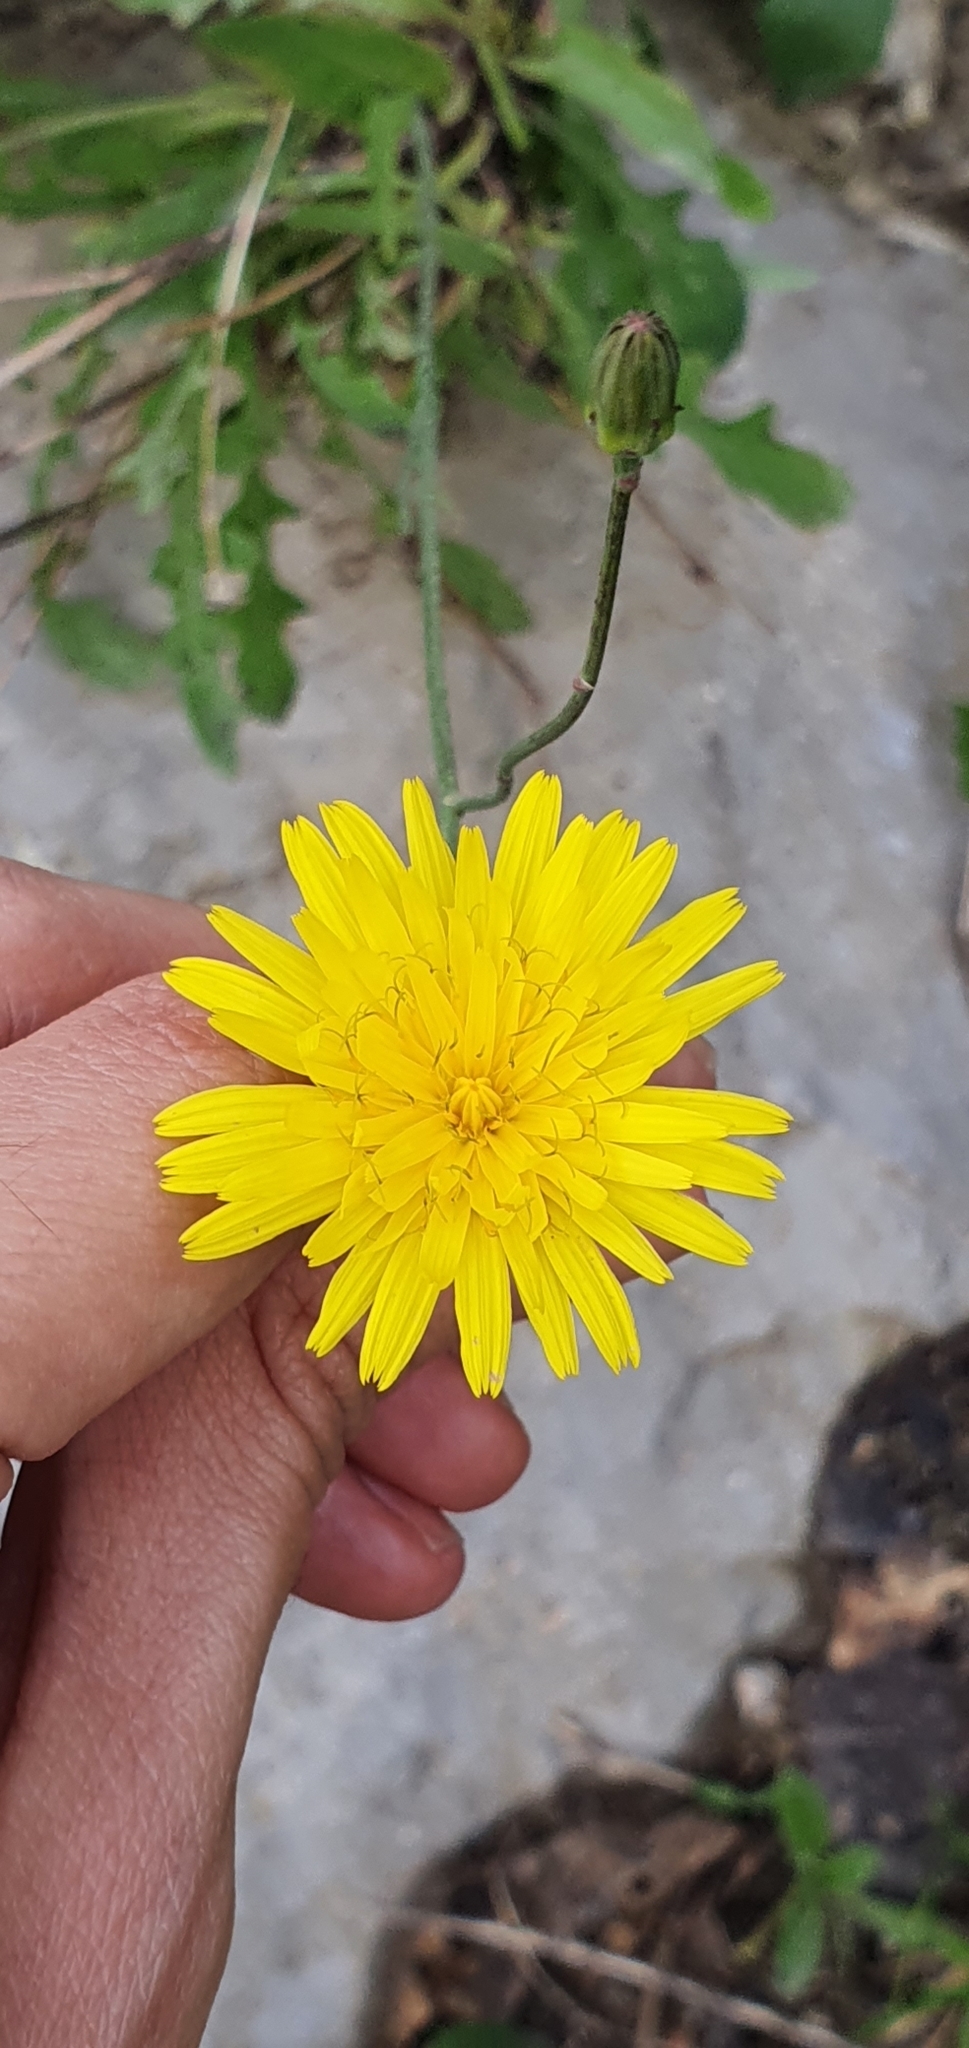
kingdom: Plantae
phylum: Tracheophyta
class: Magnoliopsida
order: Asterales
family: Asteraceae
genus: Reichardia
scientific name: Reichardia picroides
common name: Common brighteyes
